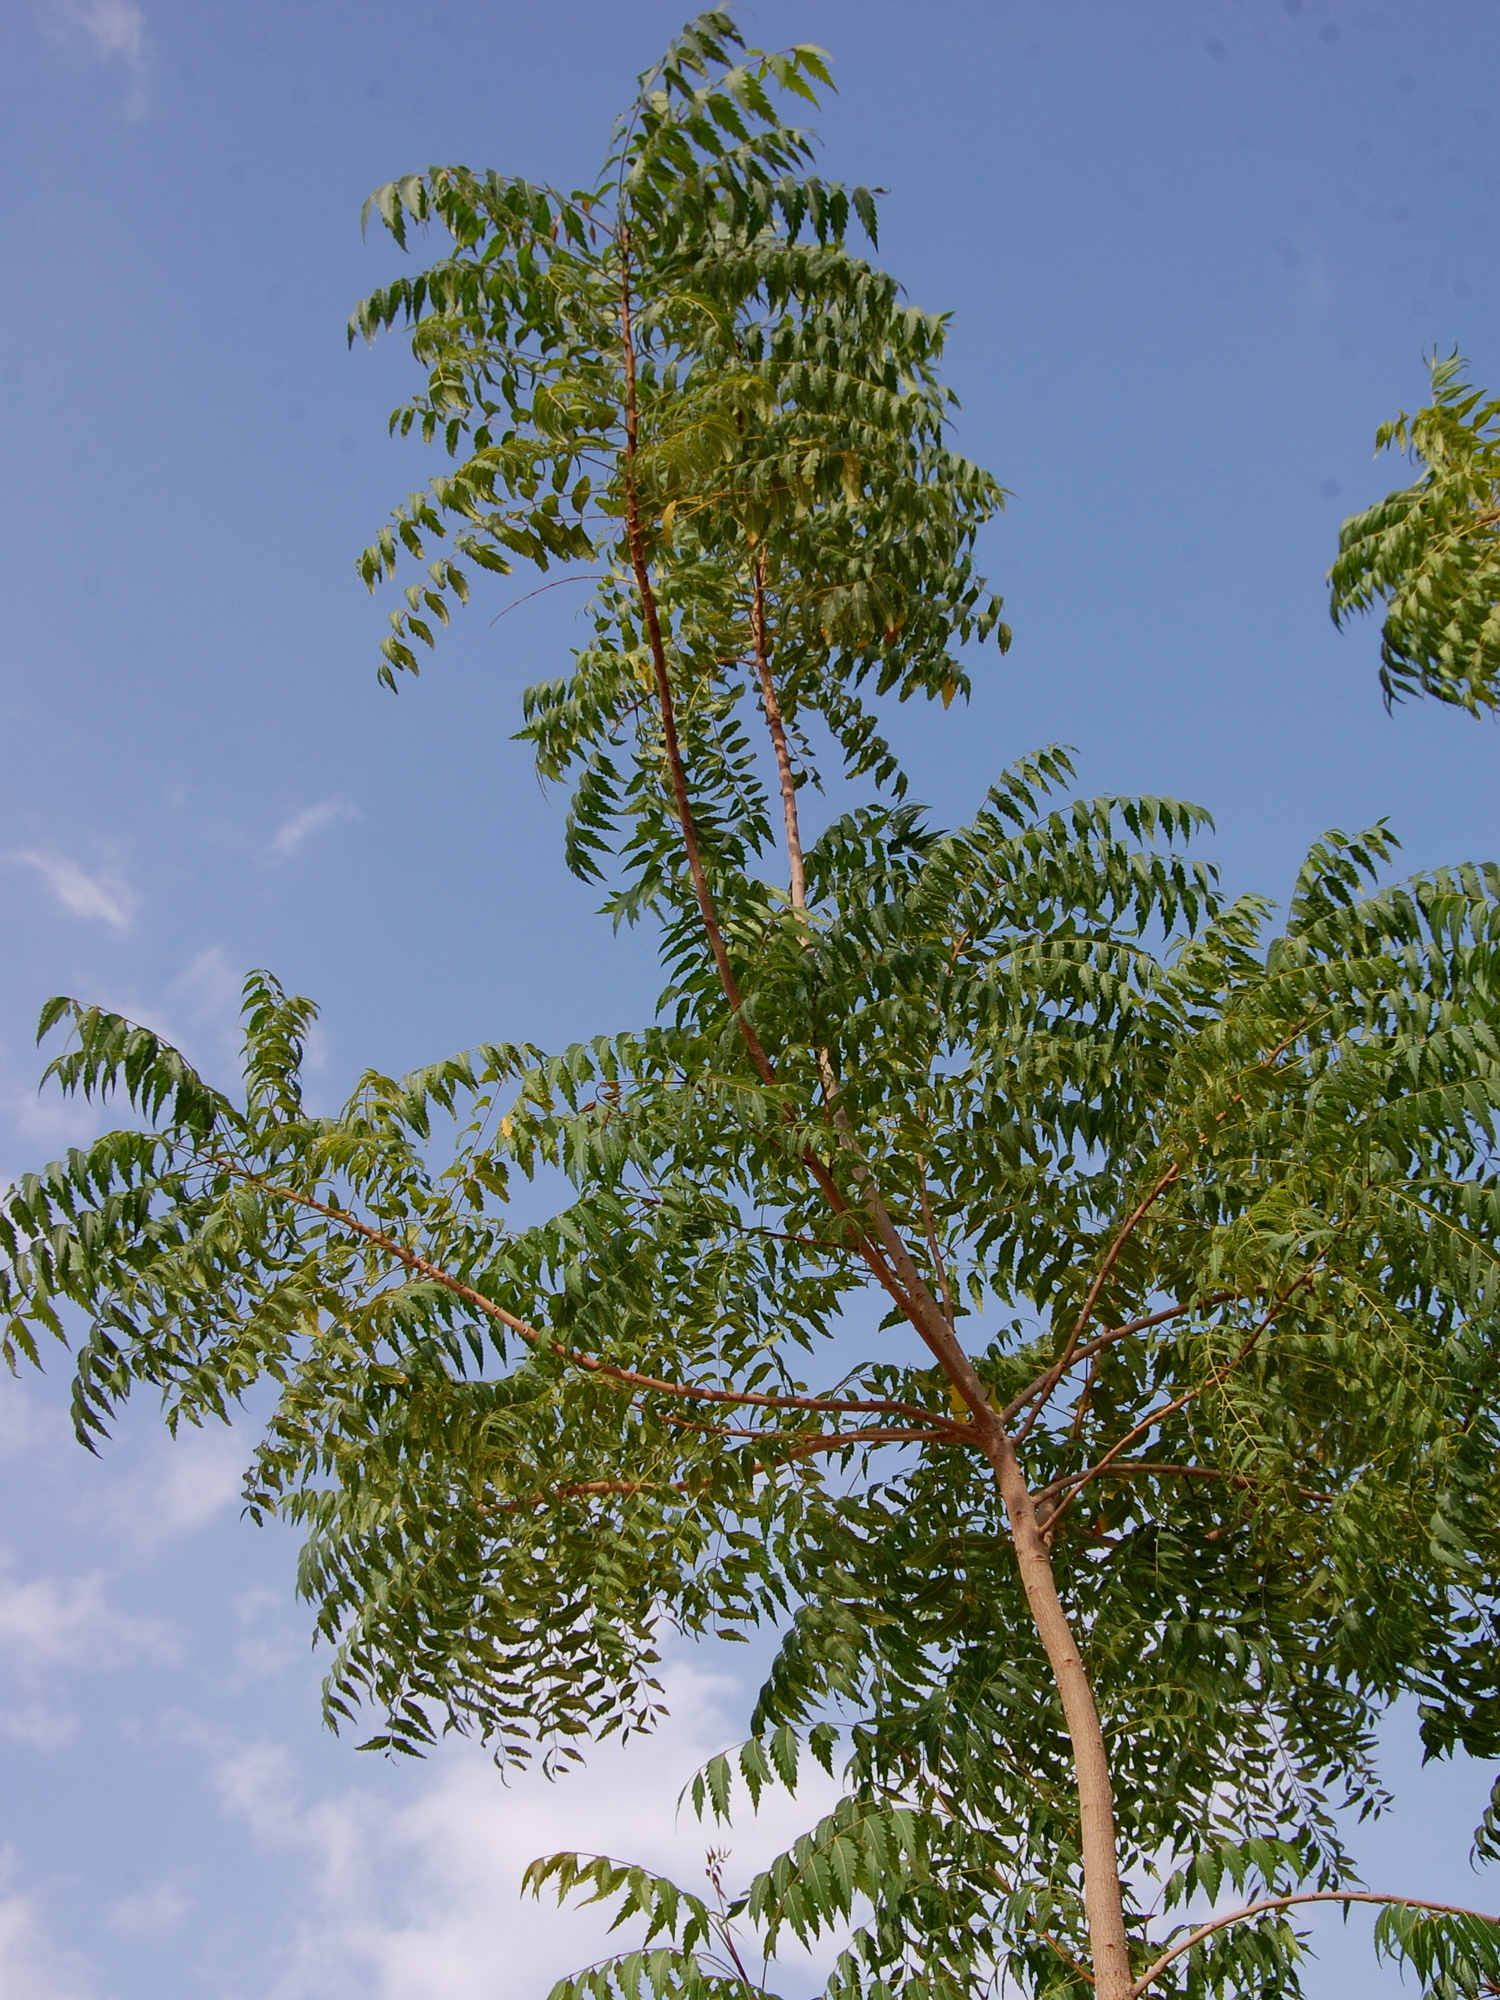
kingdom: Plantae
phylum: Tracheophyta
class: Magnoliopsida
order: Sapindales
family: Meliaceae
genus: Azadirachta
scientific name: Azadirachta indica
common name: Neem
